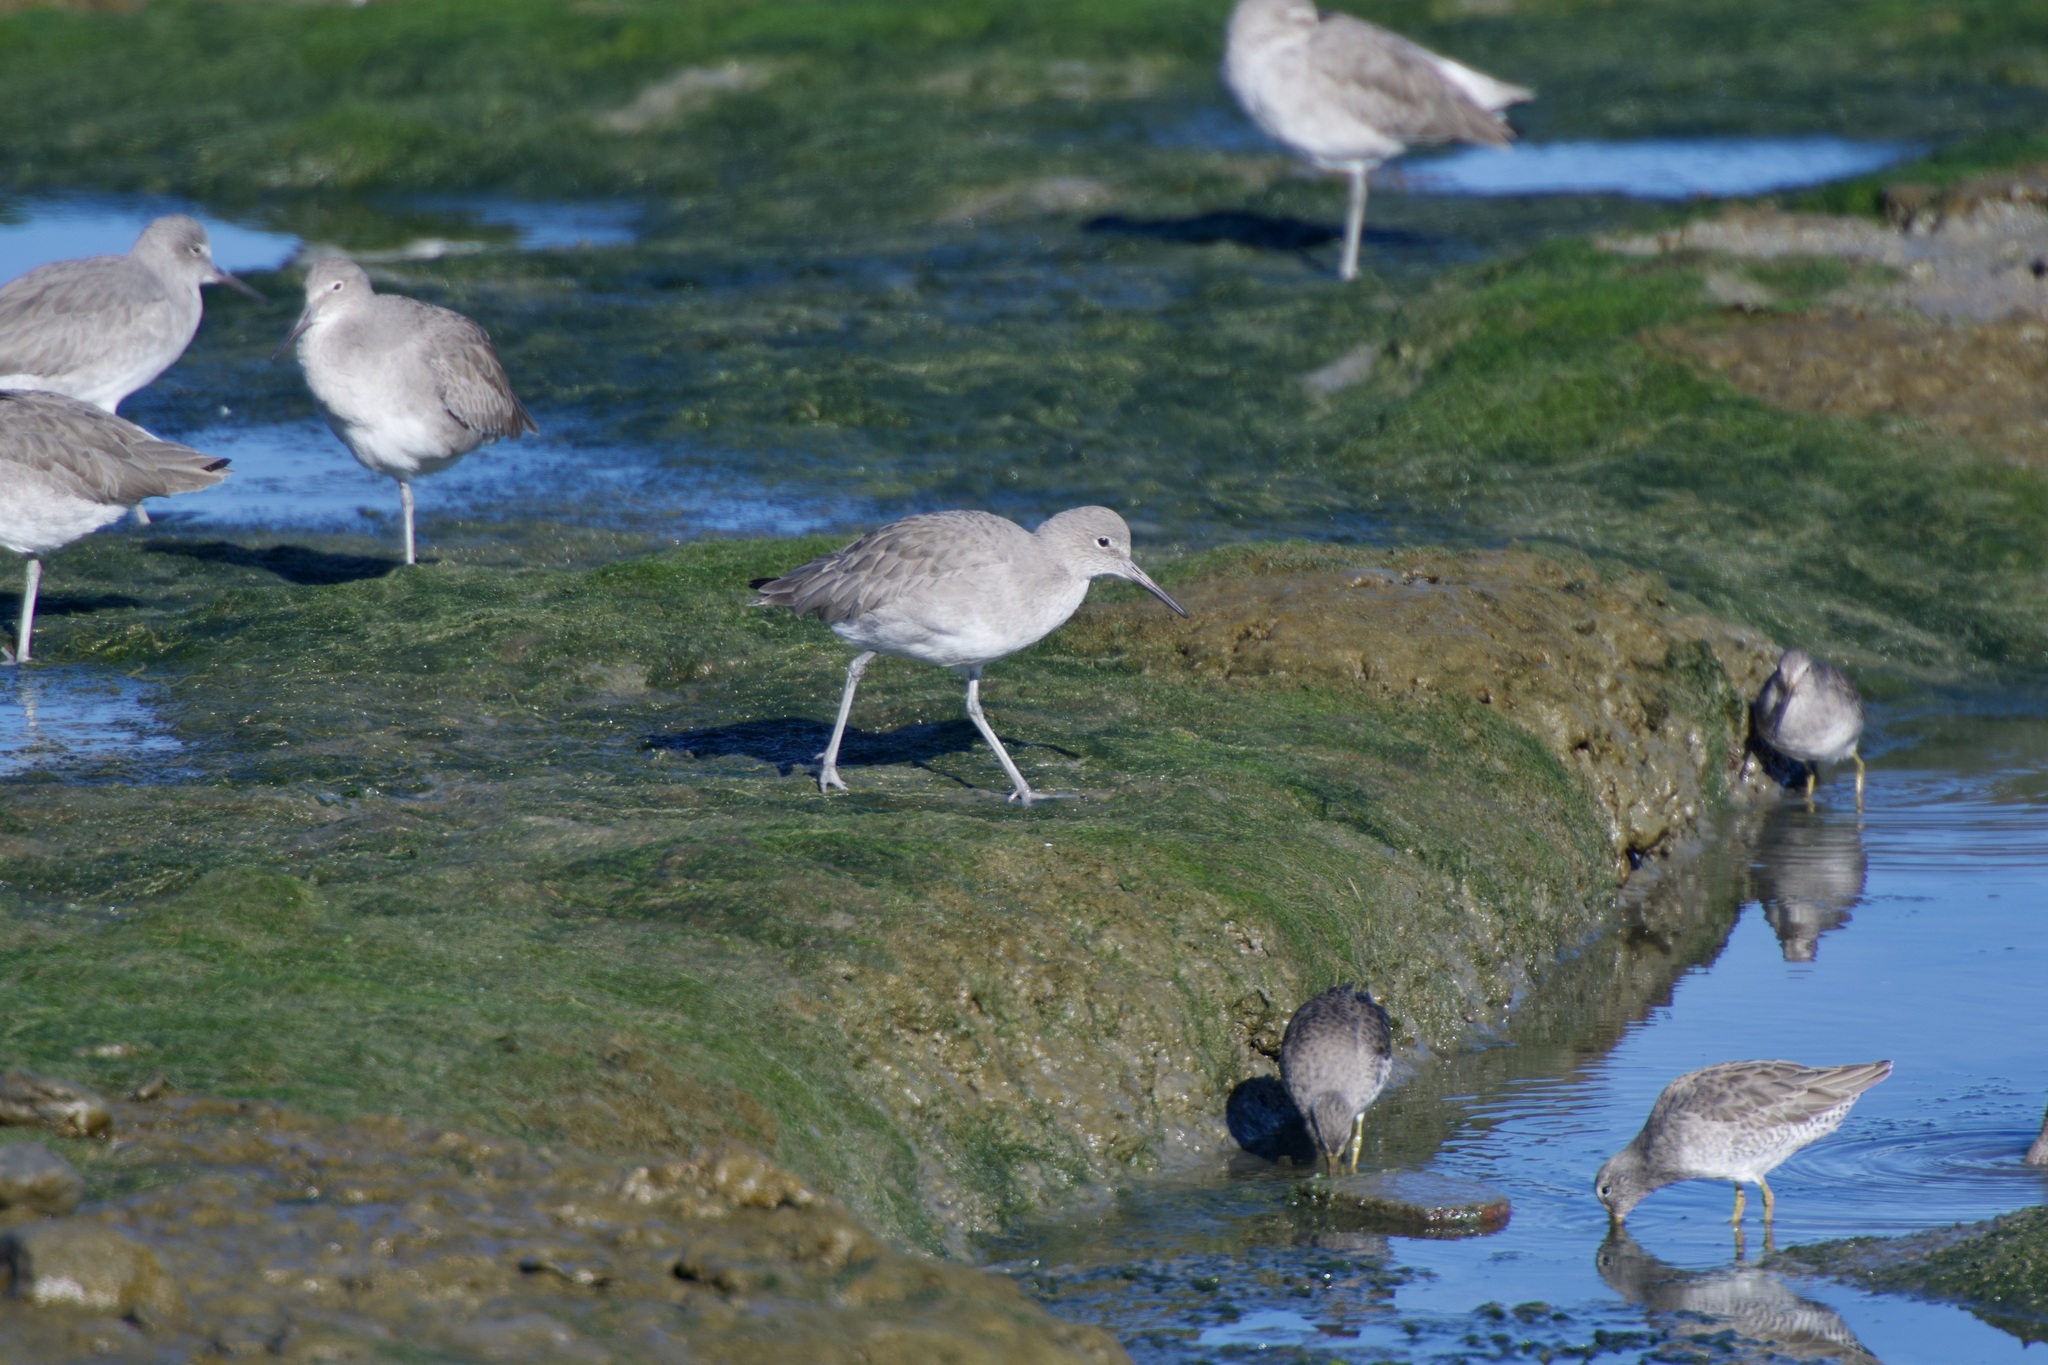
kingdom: Animalia
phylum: Chordata
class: Aves
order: Charadriiformes
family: Scolopacidae
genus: Tringa
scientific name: Tringa semipalmata
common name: Willet
